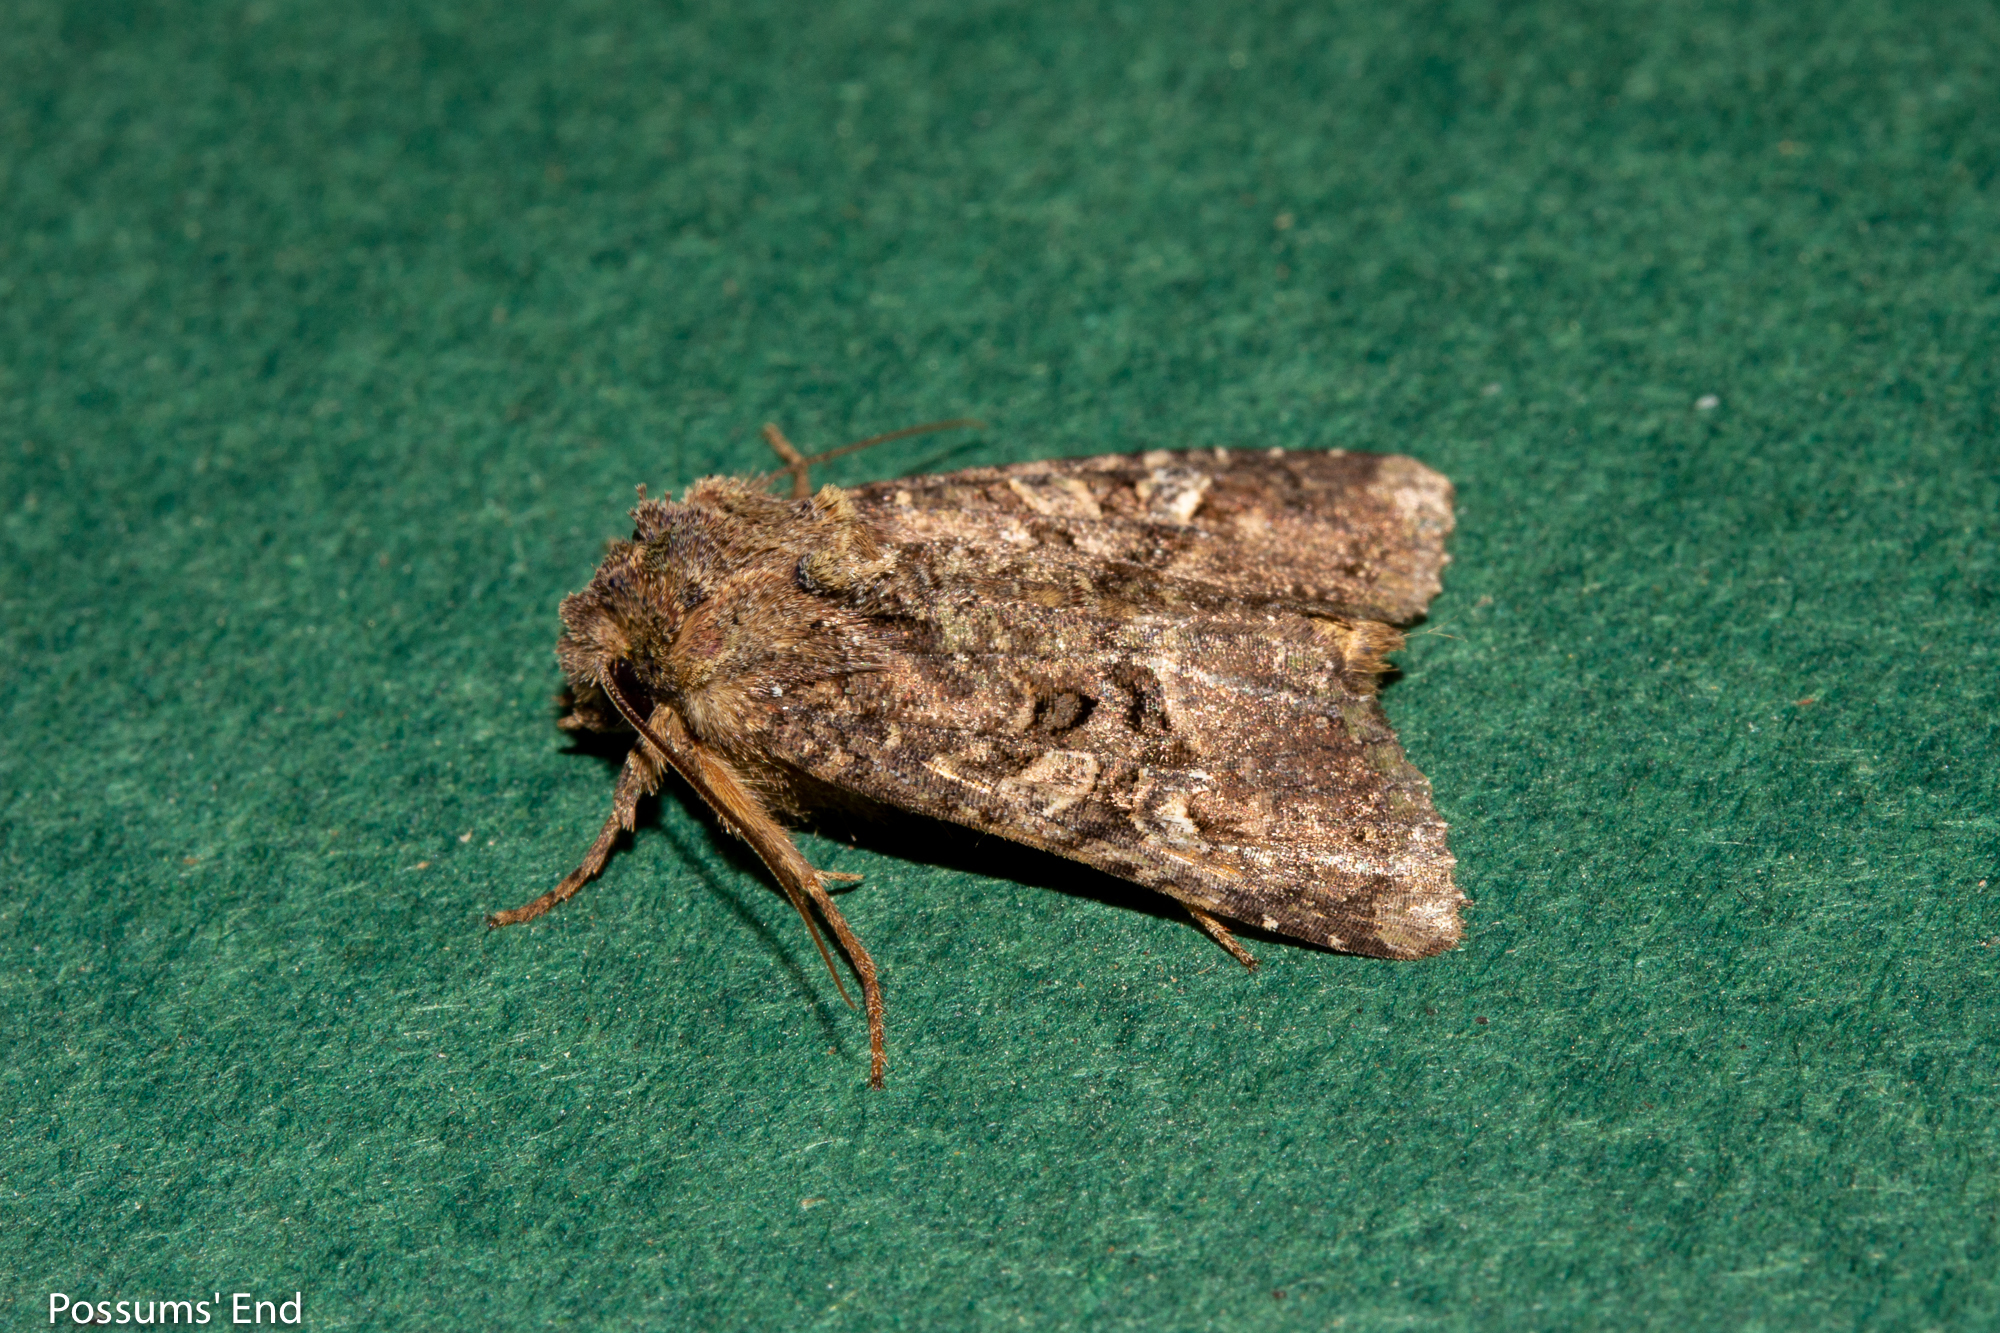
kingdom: Animalia
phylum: Arthropoda
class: Insecta
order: Lepidoptera
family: Noctuidae
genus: Meterana
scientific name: Meterana ochthistis
